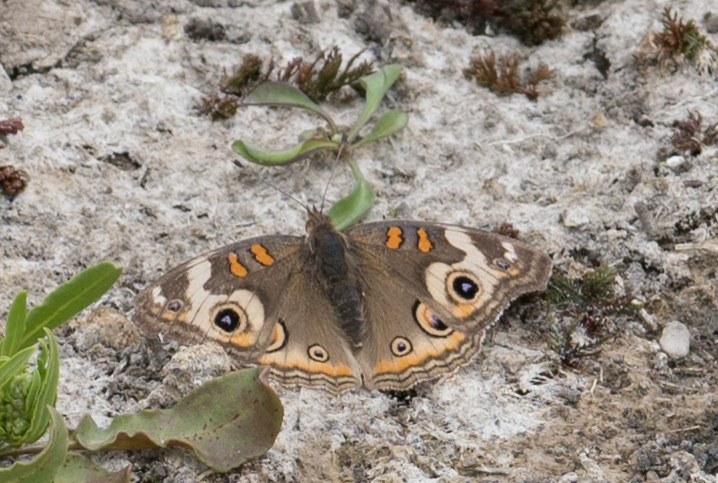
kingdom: Animalia
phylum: Arthropoda
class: Insecta
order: Lepidoptera
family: Nymphalidae
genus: Junonia
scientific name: Junonia grisea
